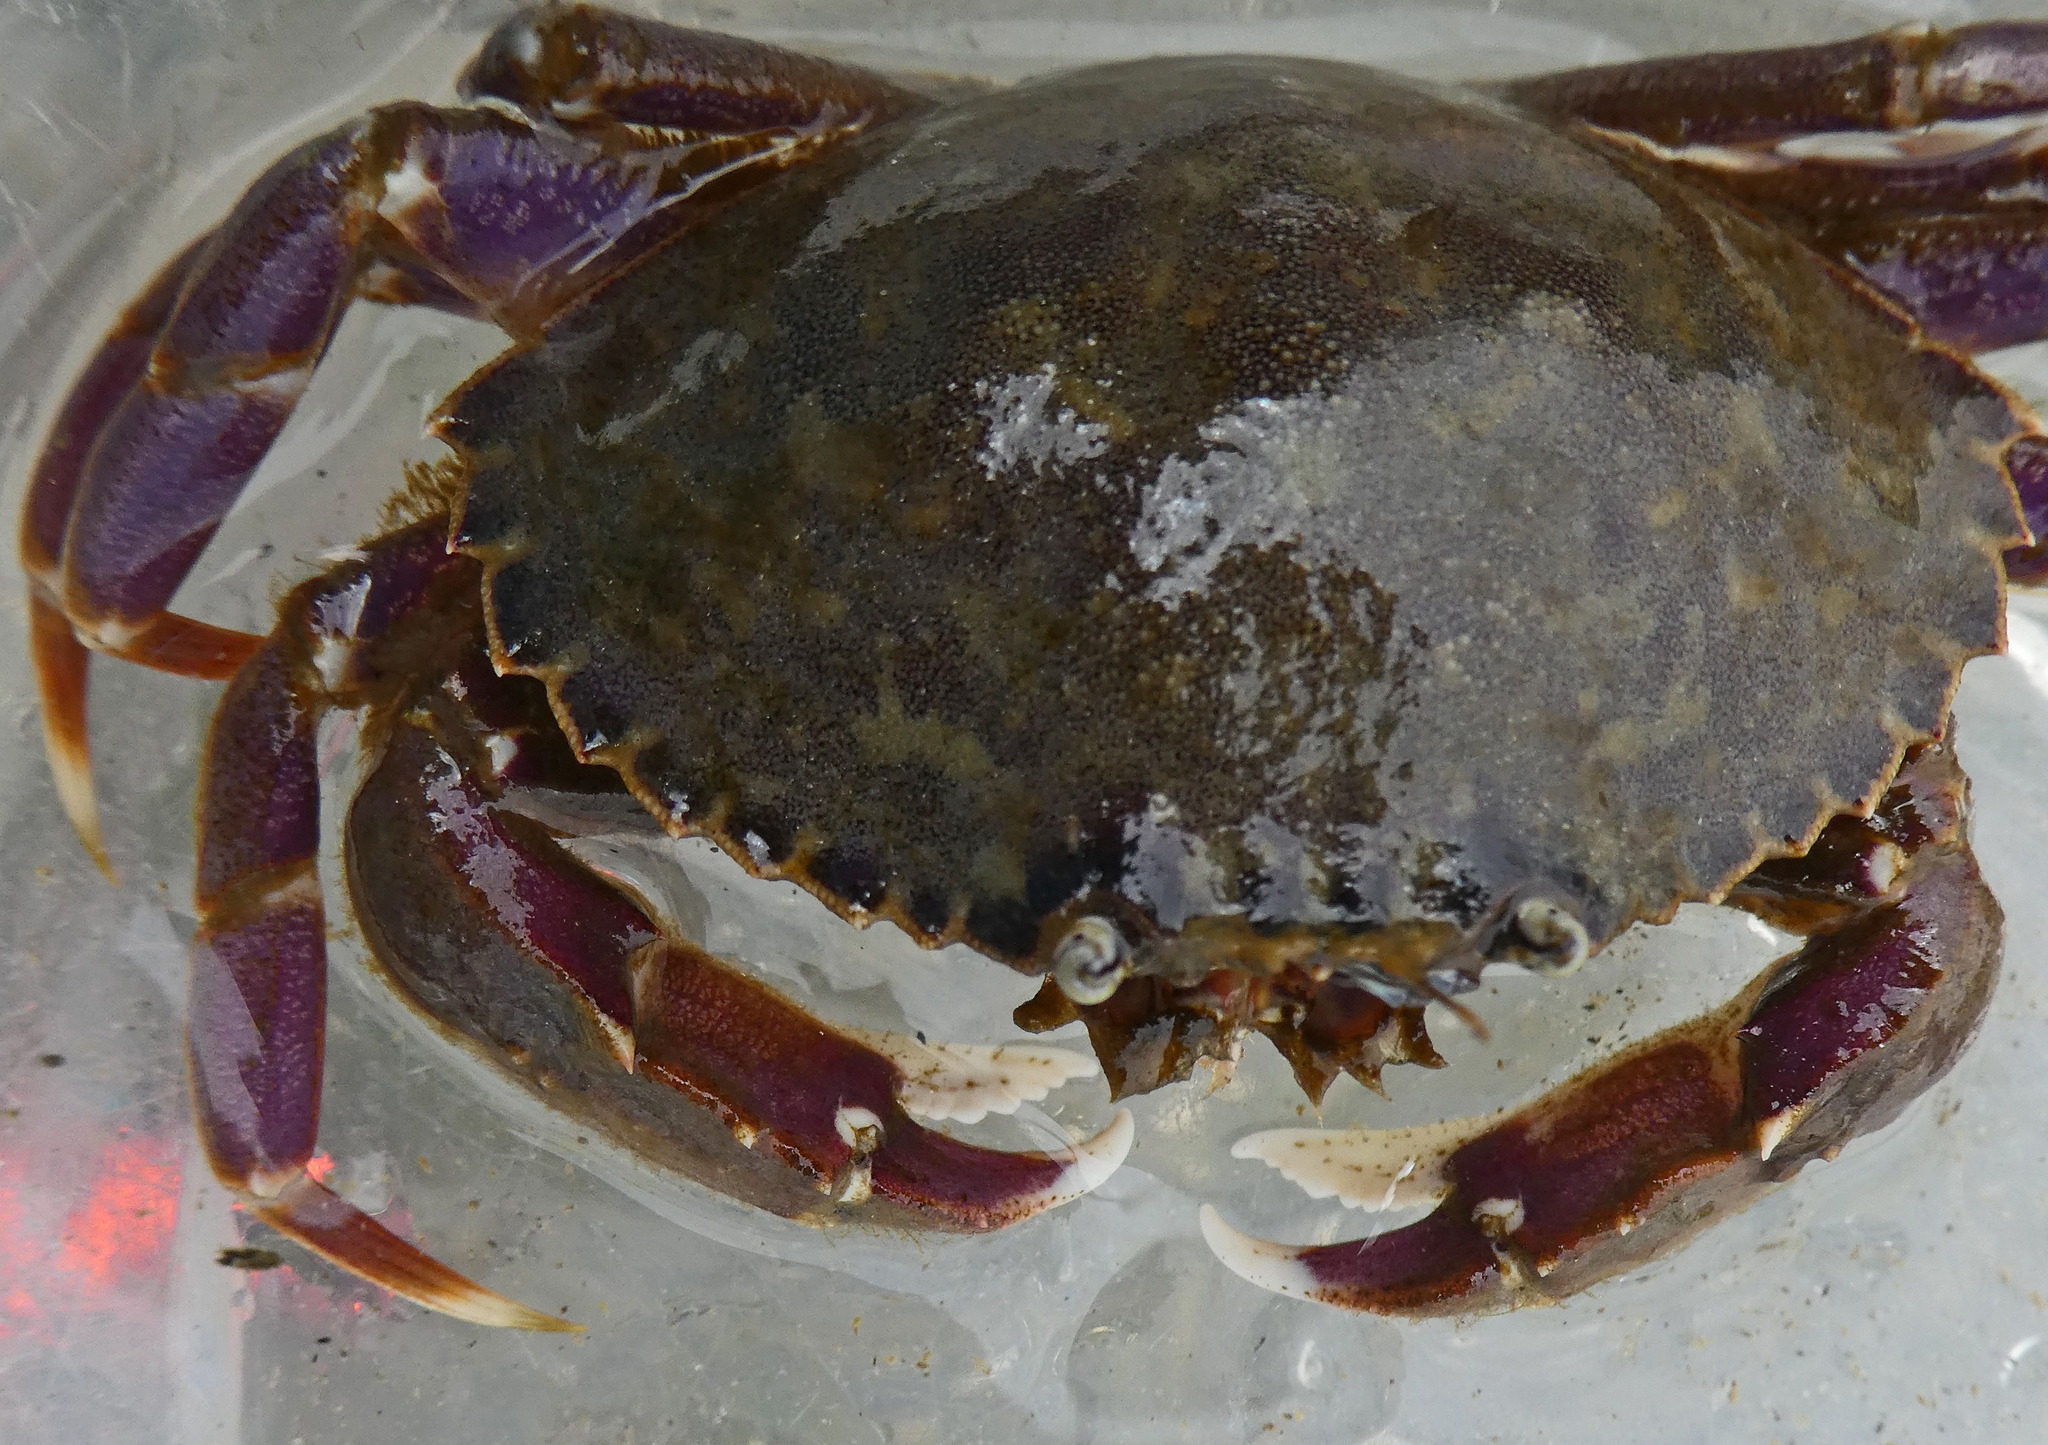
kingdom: Animalia
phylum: Arthropoda
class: Malacostraca
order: Decapoda
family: Cancridae
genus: Metacarcinus
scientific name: Metacarcinus gracilis
